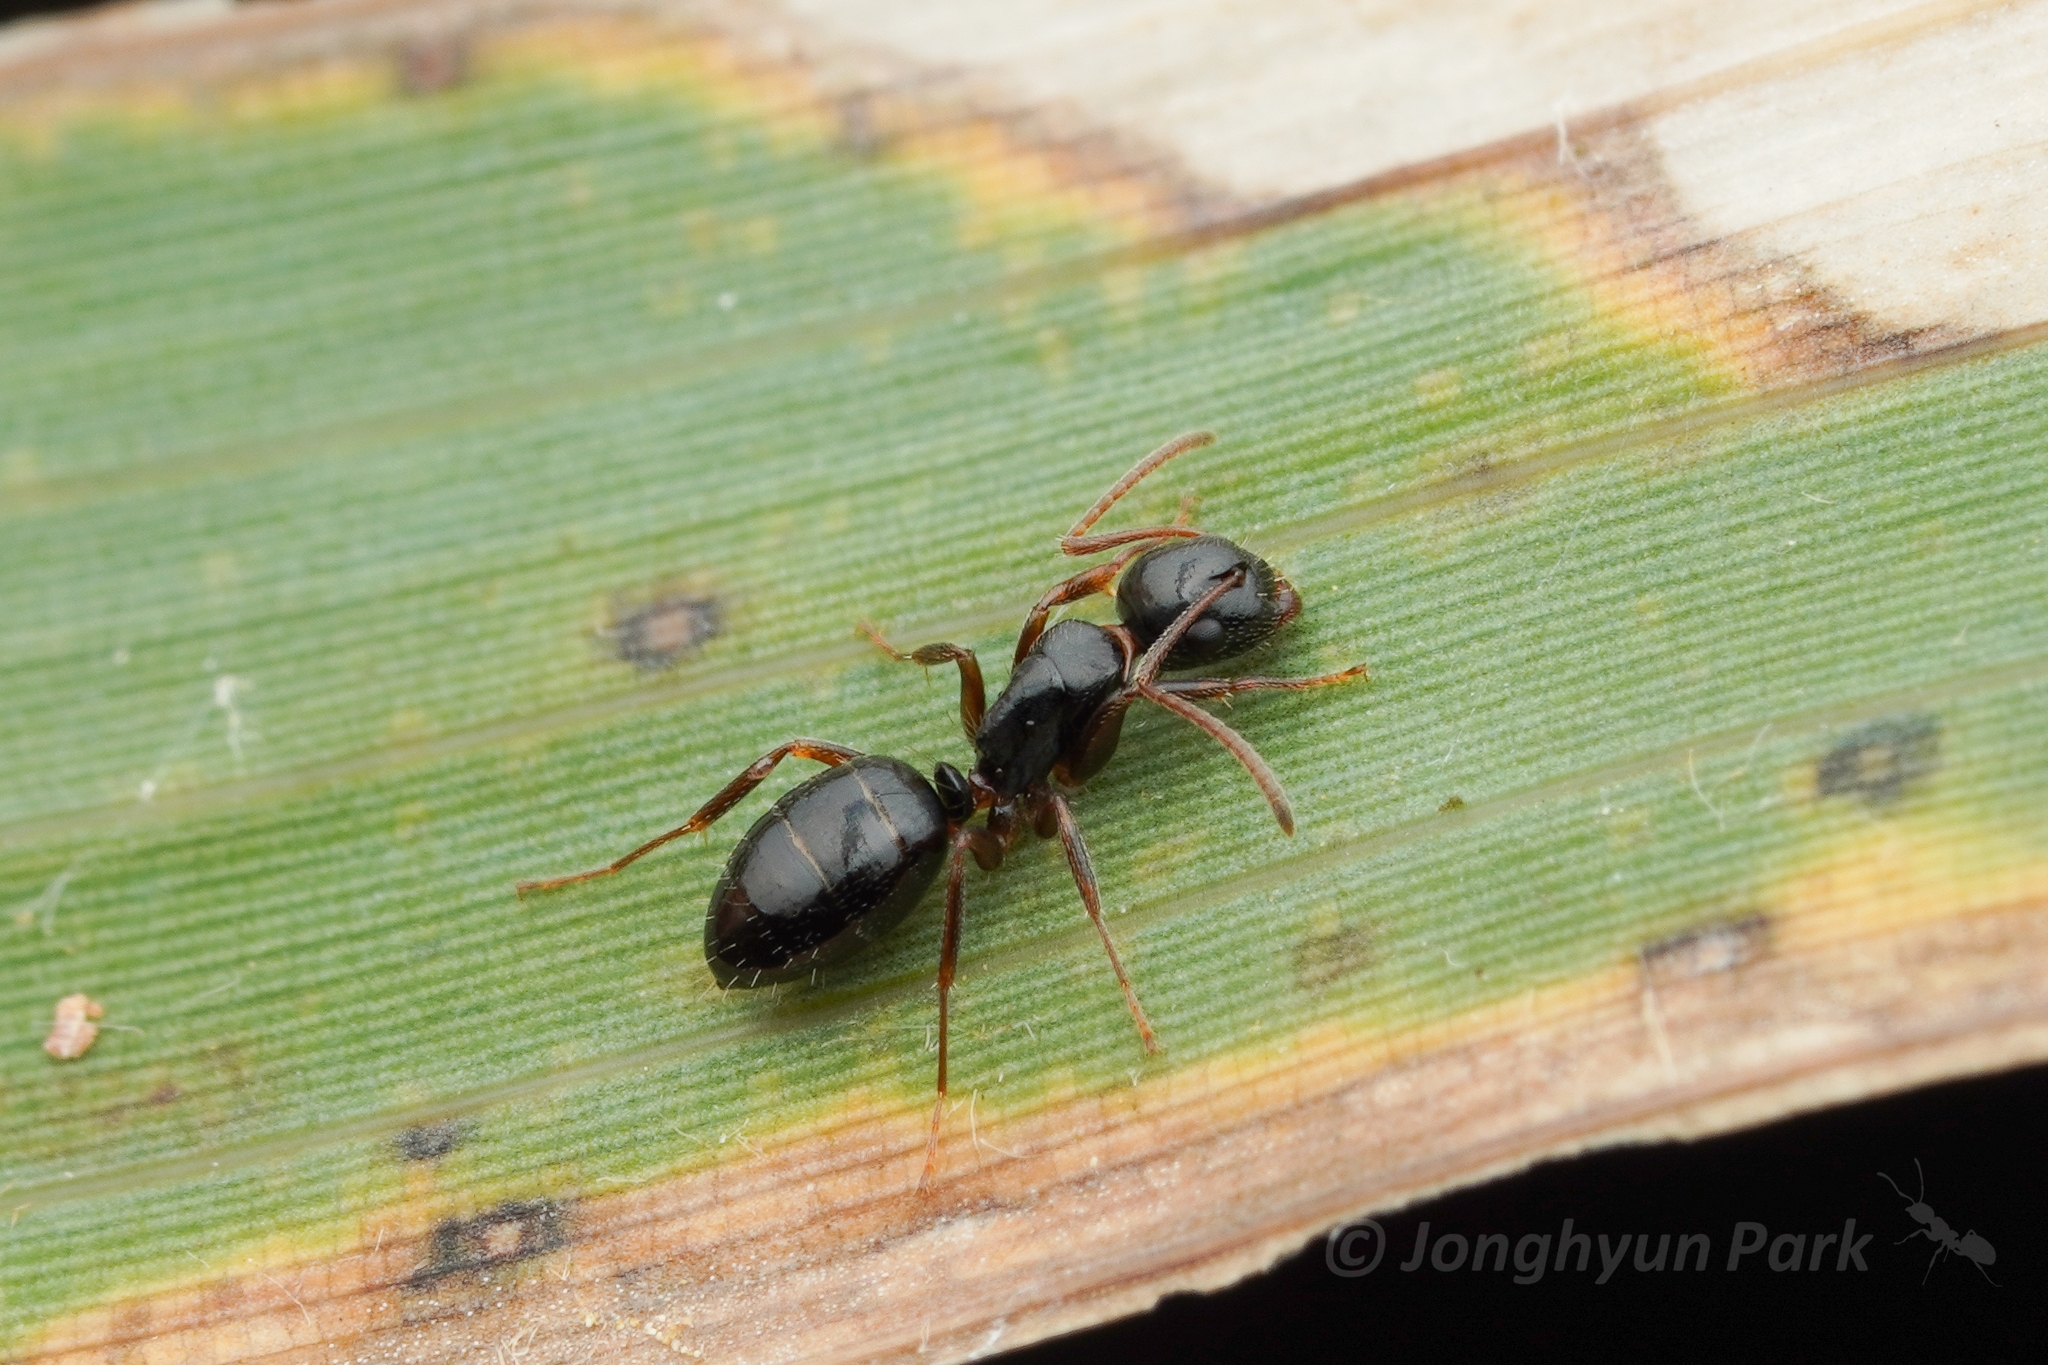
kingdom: Animalia
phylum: Arthropoda
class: Insecta
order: Hymenoptera
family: Formicidae
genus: Camponotus
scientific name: Camponotus itoi
